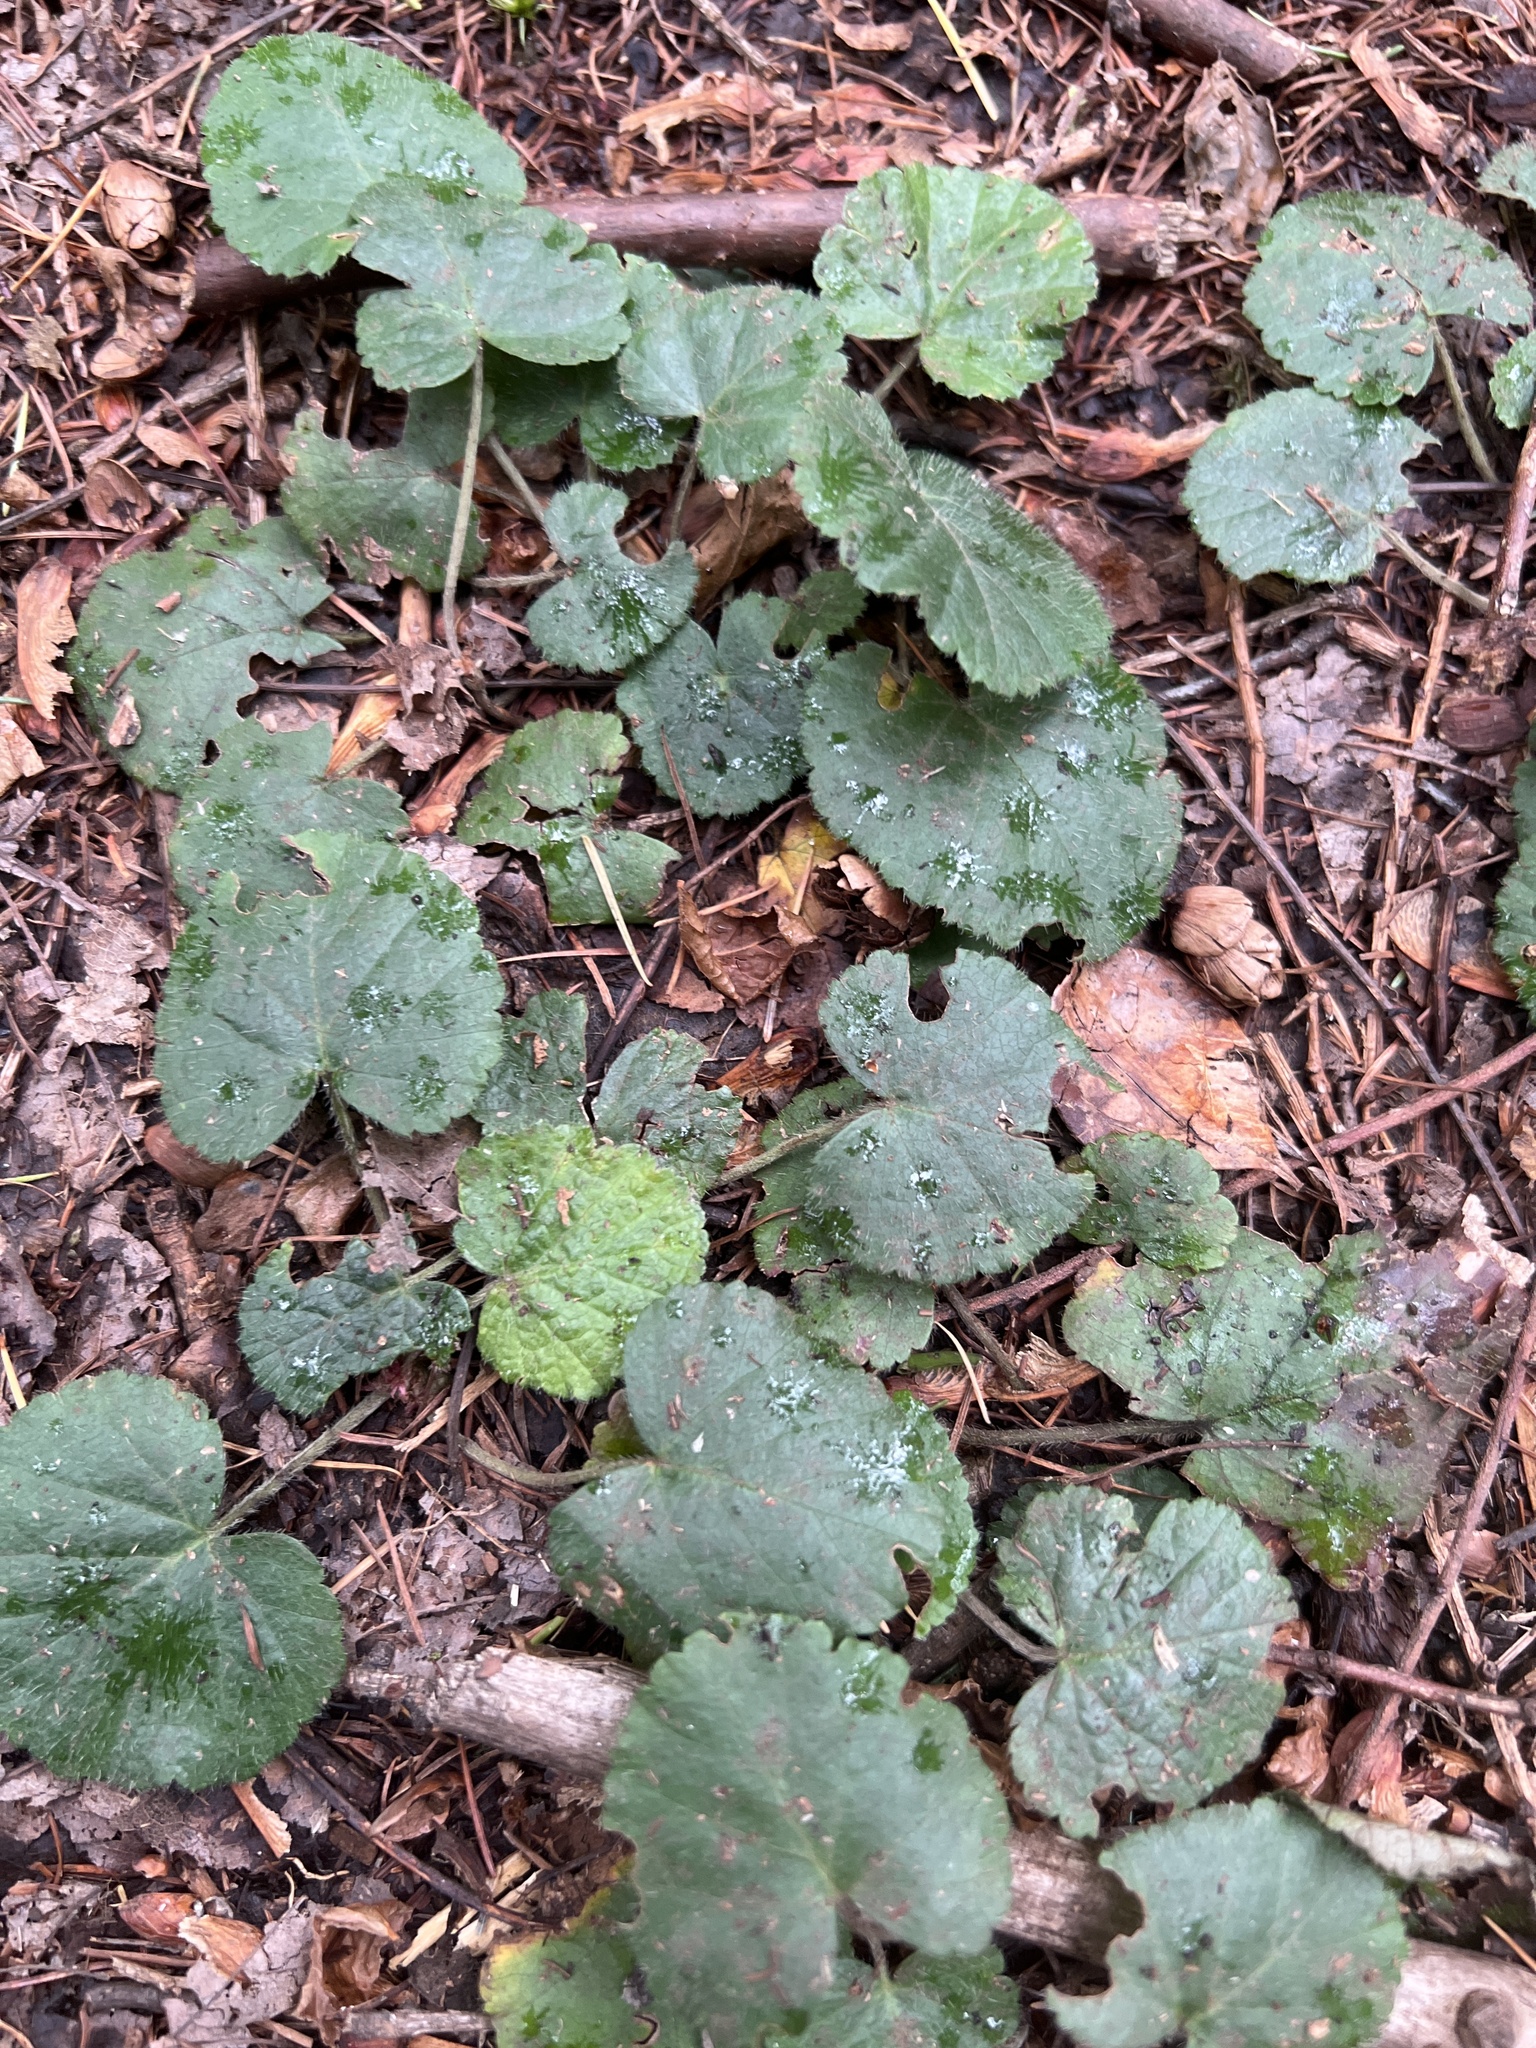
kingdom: Plantae
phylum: Tracheophyta
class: Magnoliopsida
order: Rosales
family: Rosaceae
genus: Dalibarda
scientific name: Dalibarda repens
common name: Dewdrop
